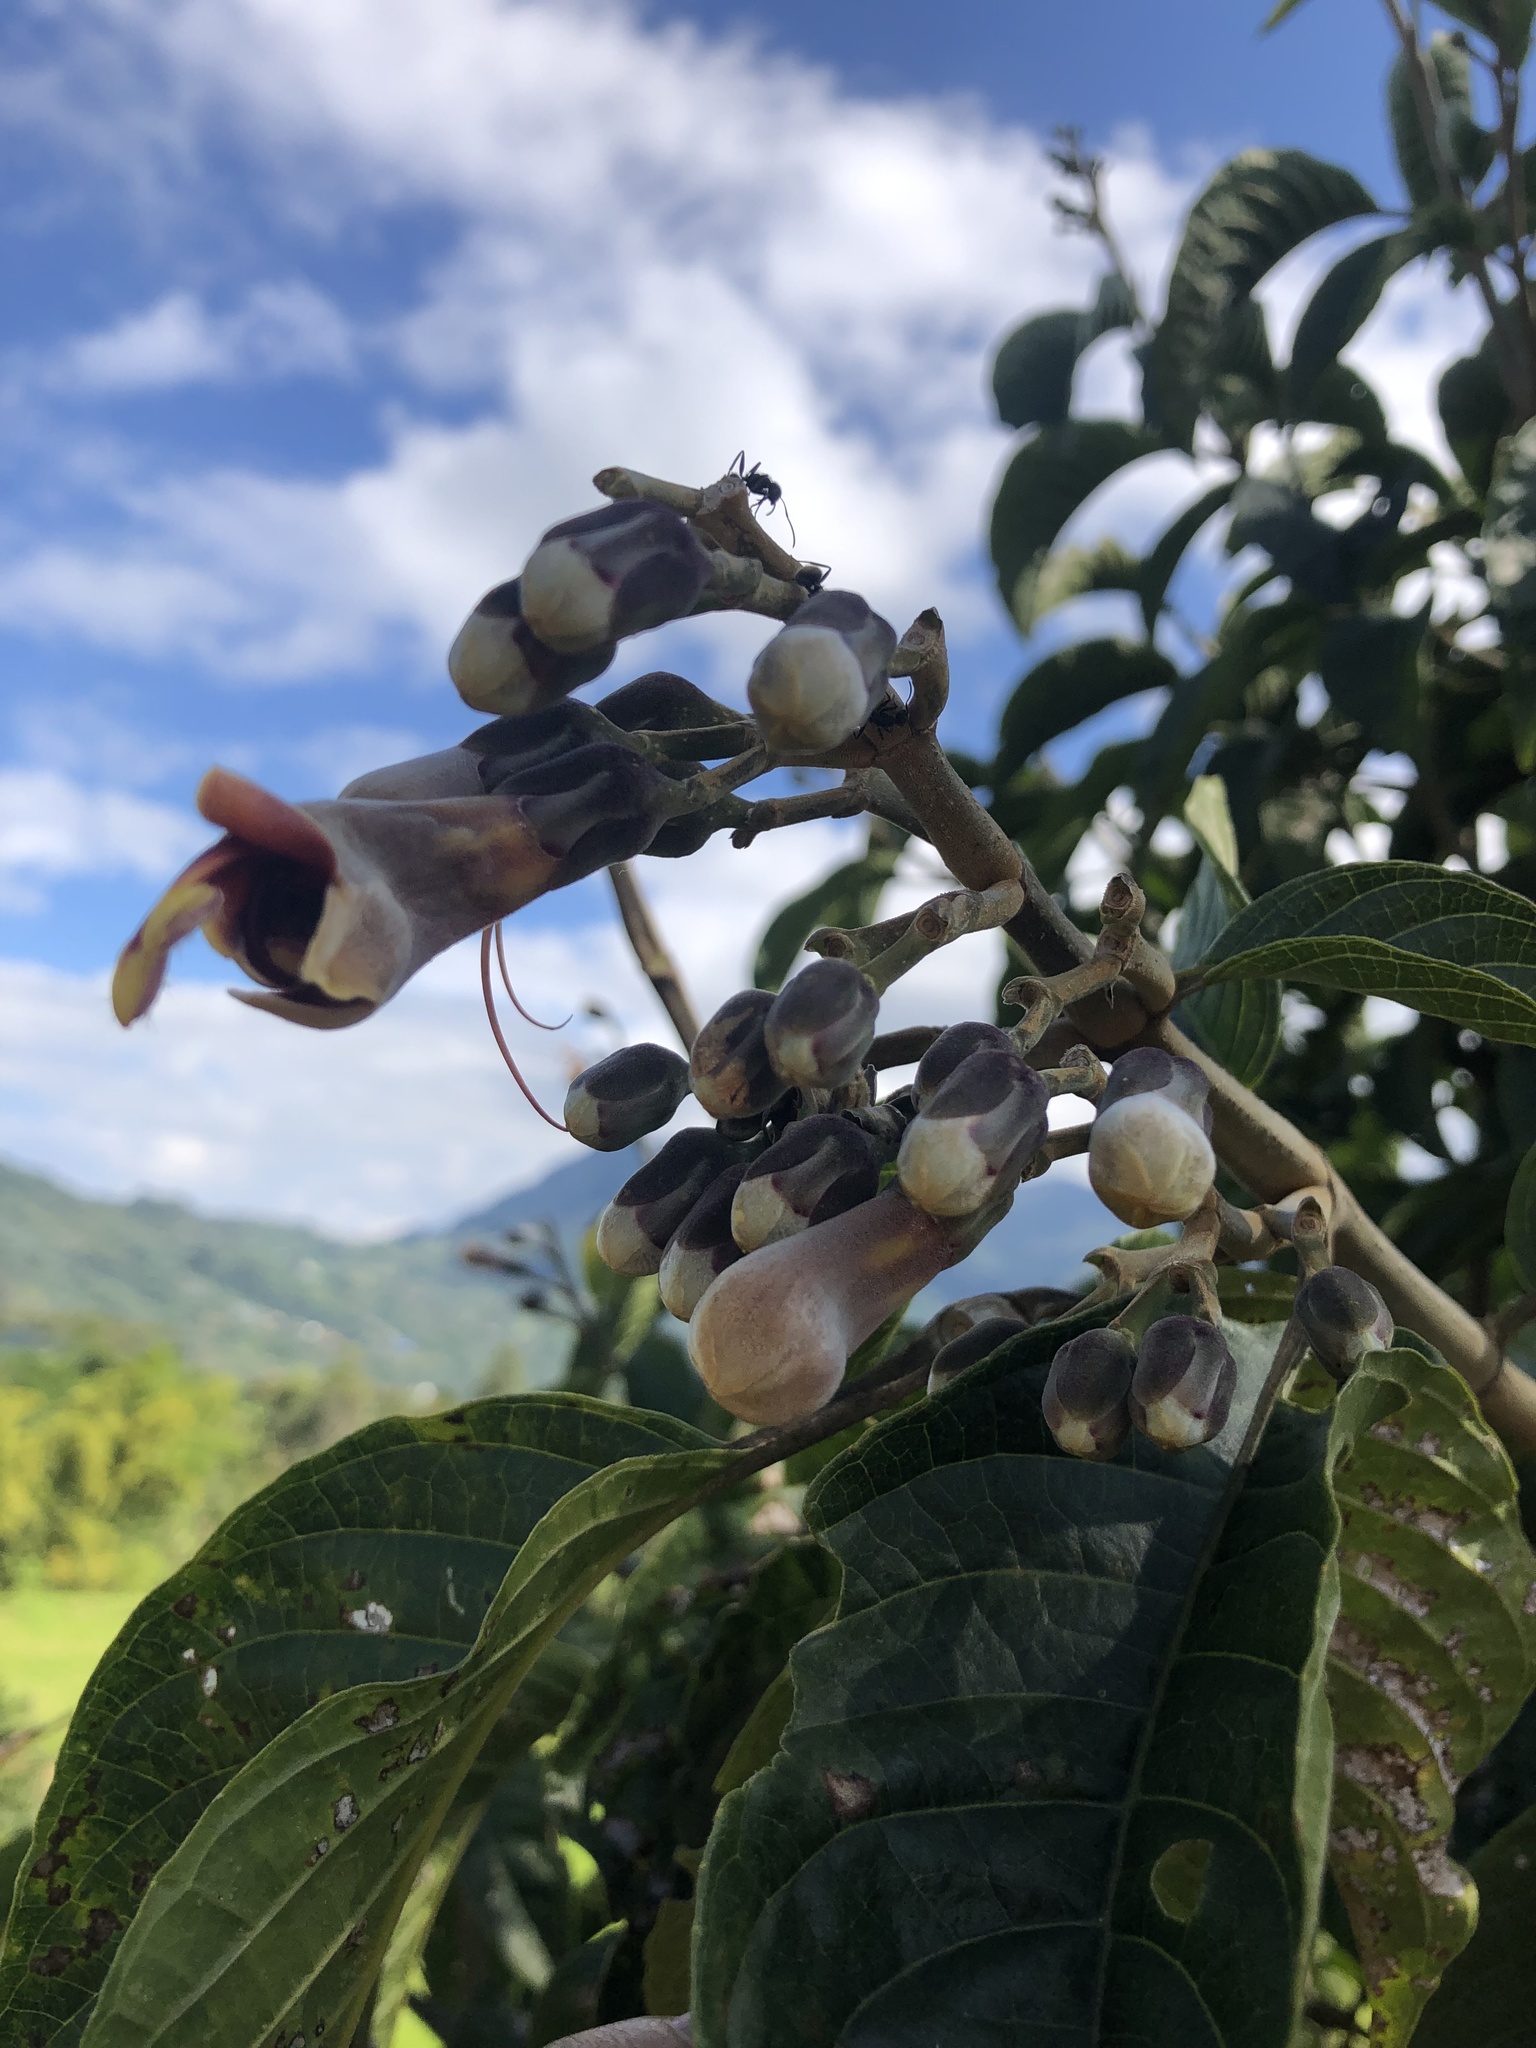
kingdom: Plantae
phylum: Tracheophyta
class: Magnoliopsida
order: Lamiales
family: Acanthaceae
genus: Trichanthera
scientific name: Trichanthera gigantea
